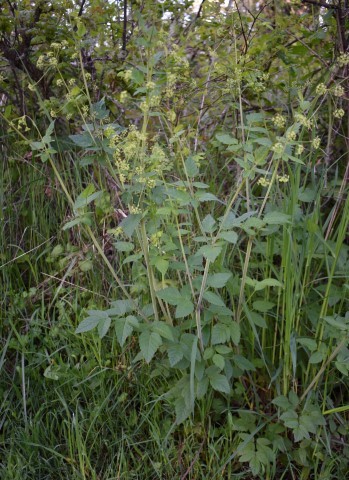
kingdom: Plantae
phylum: Tracheophyta
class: Magnoliopsida
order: Apiales
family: Apiaceae
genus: Osmorhiza
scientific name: Osmorhiza occidentalis
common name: Western sweet cicely
